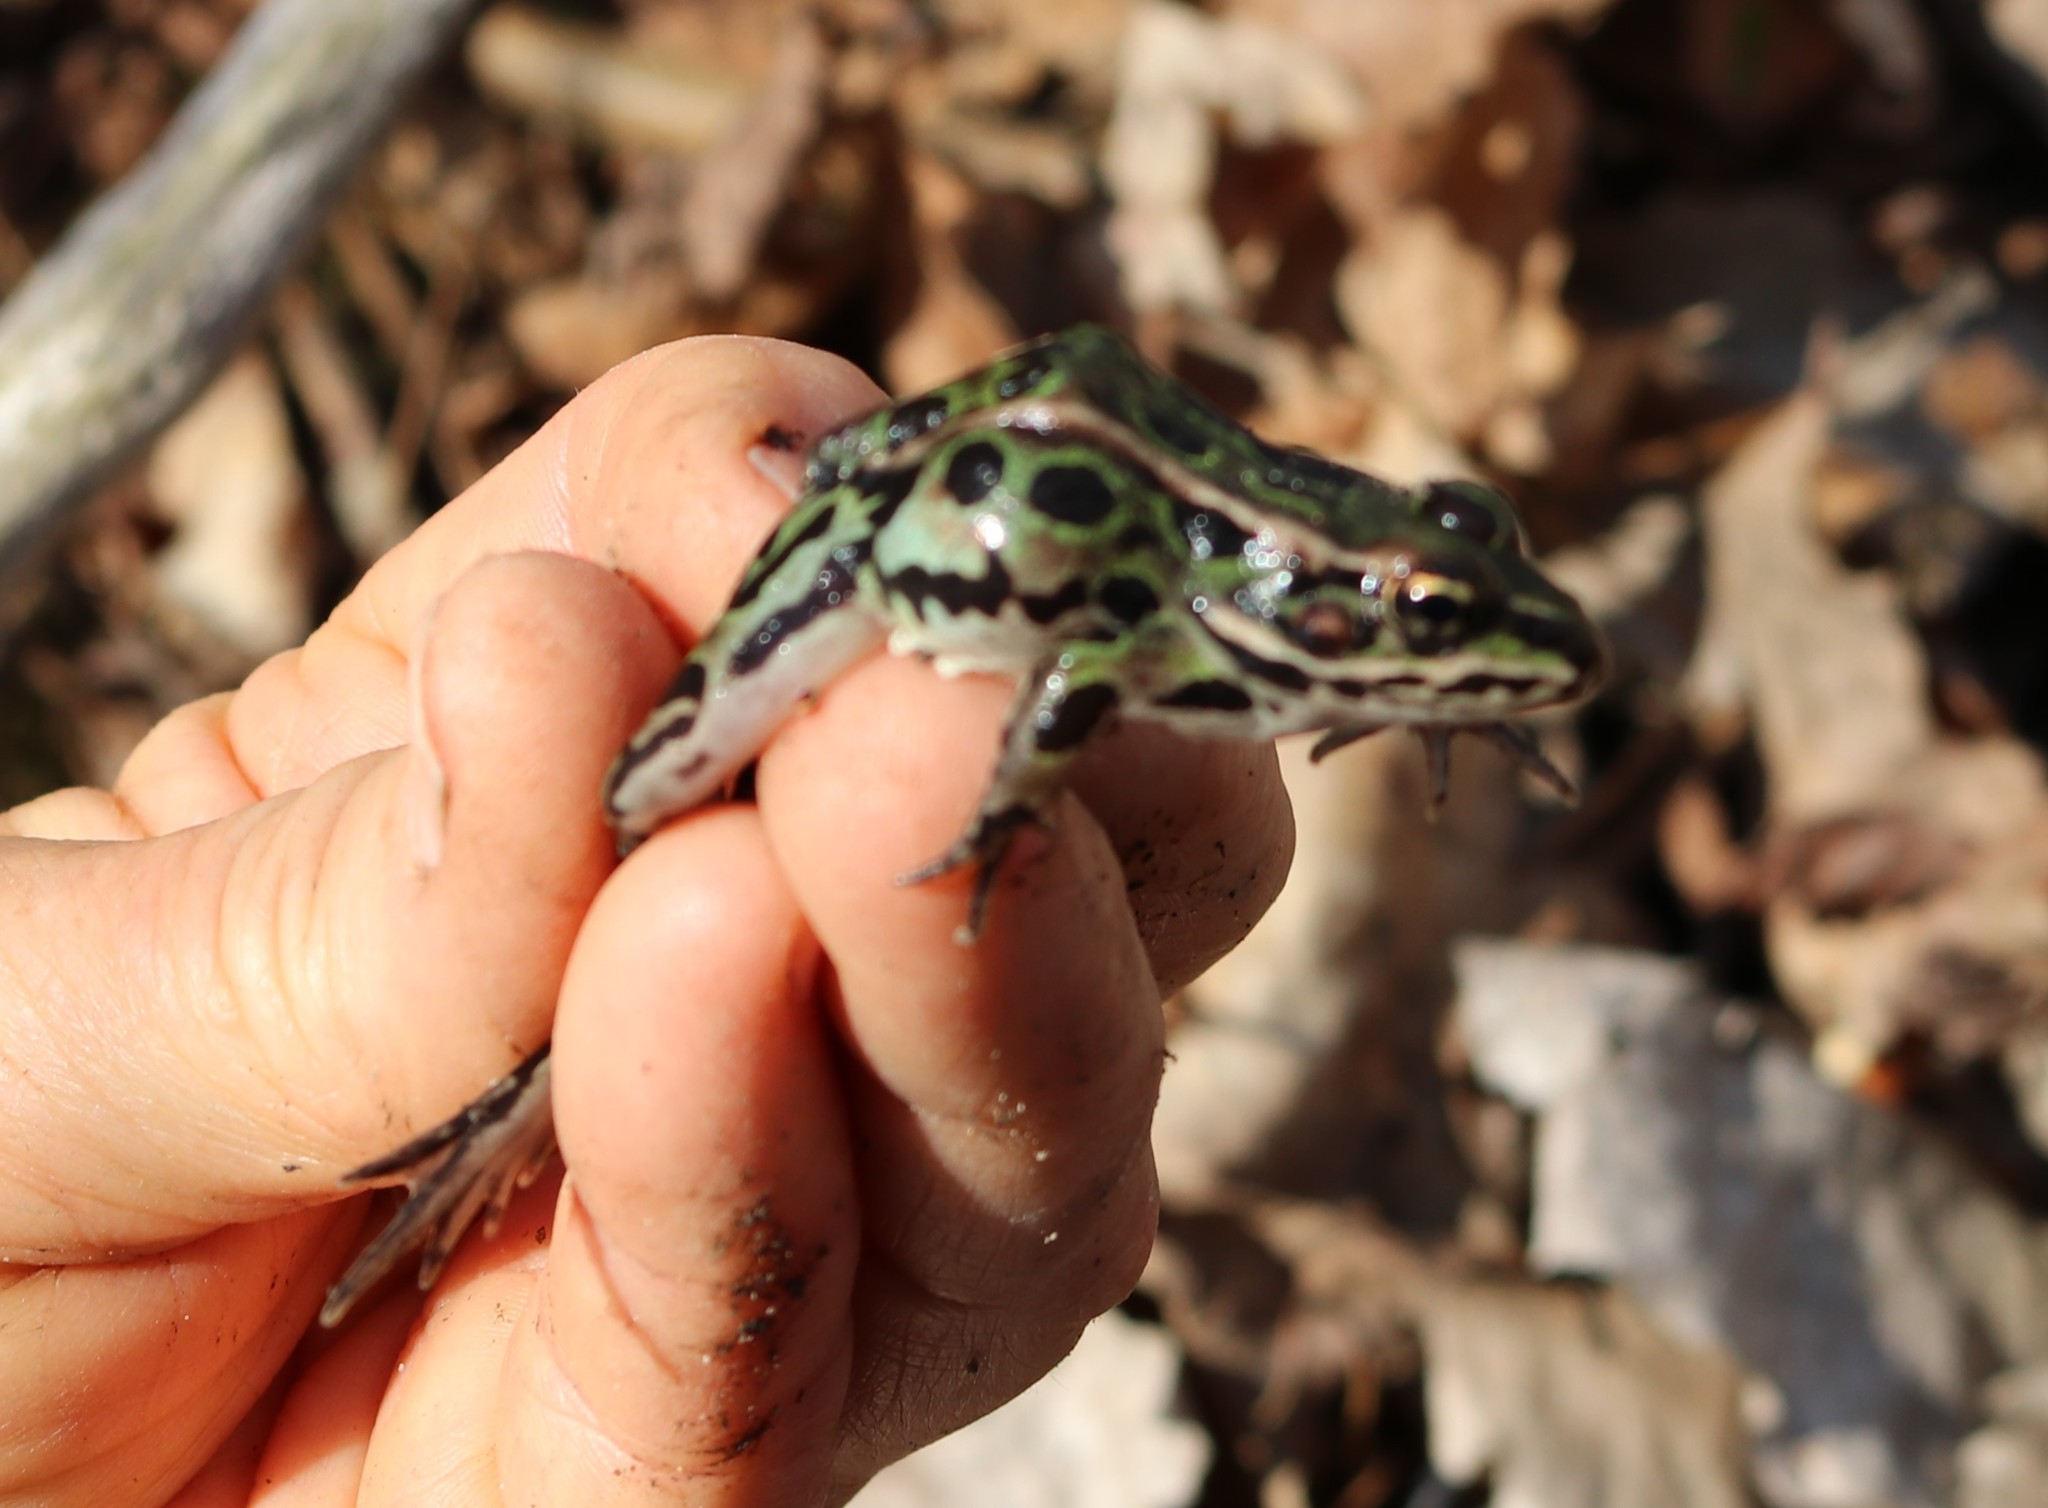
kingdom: Animalia
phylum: Chordata
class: Amphibia
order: Anura
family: Ranidae
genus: Lithobates
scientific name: Lithobates pipiens
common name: Northern leopard frog
